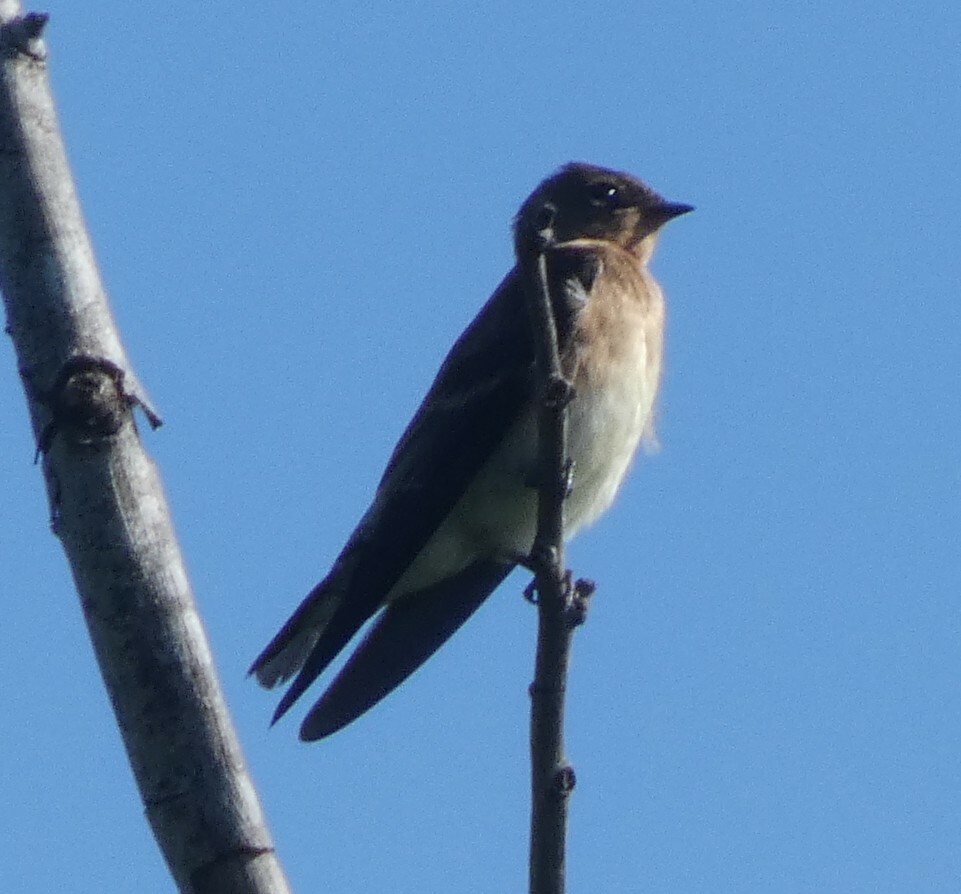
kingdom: Animalia
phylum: Chordata
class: Aves
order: Passeriformes
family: Hirundinidae
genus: Stelgidopteryx
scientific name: Stelgidopteryx ruficollis
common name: Southern rough-winged swallow
